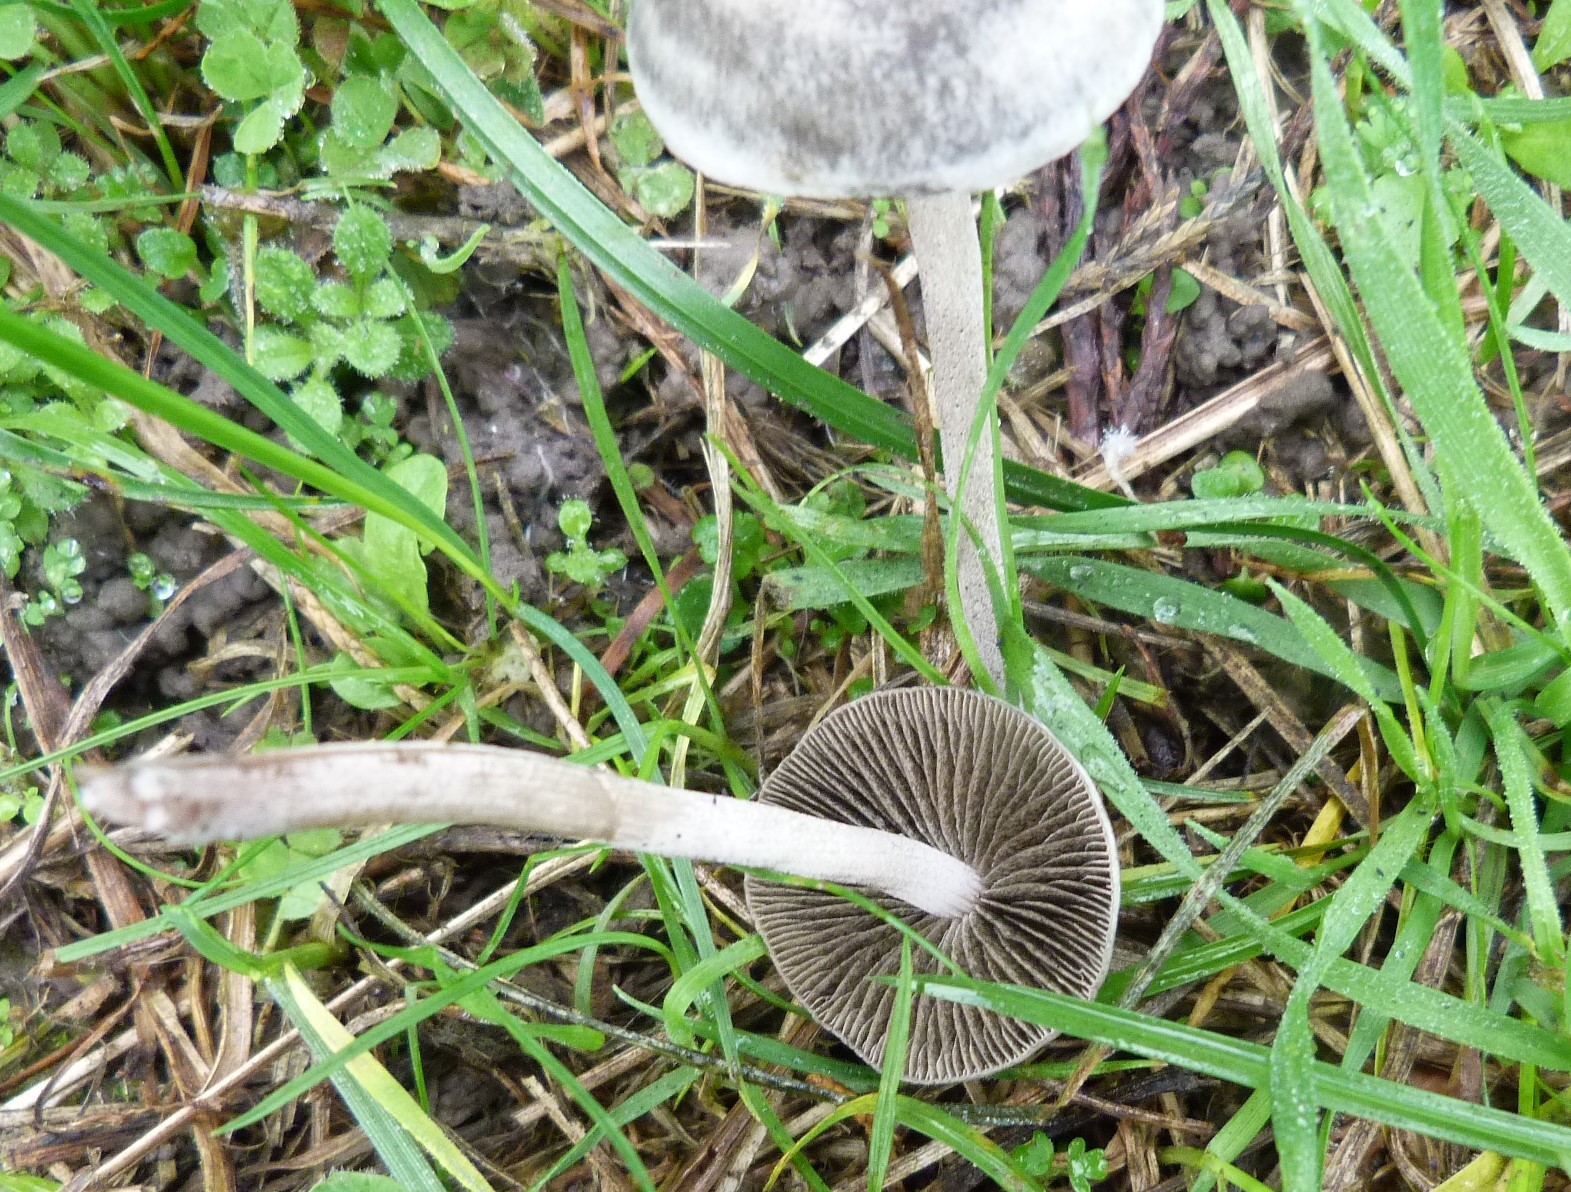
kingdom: Fungi
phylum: Basidiomycota
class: Agaricomycetes
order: Agaricales
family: Bolbitiaceae
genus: Panaeolina
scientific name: Panaeolina foenisecii
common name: Brown hay cap
